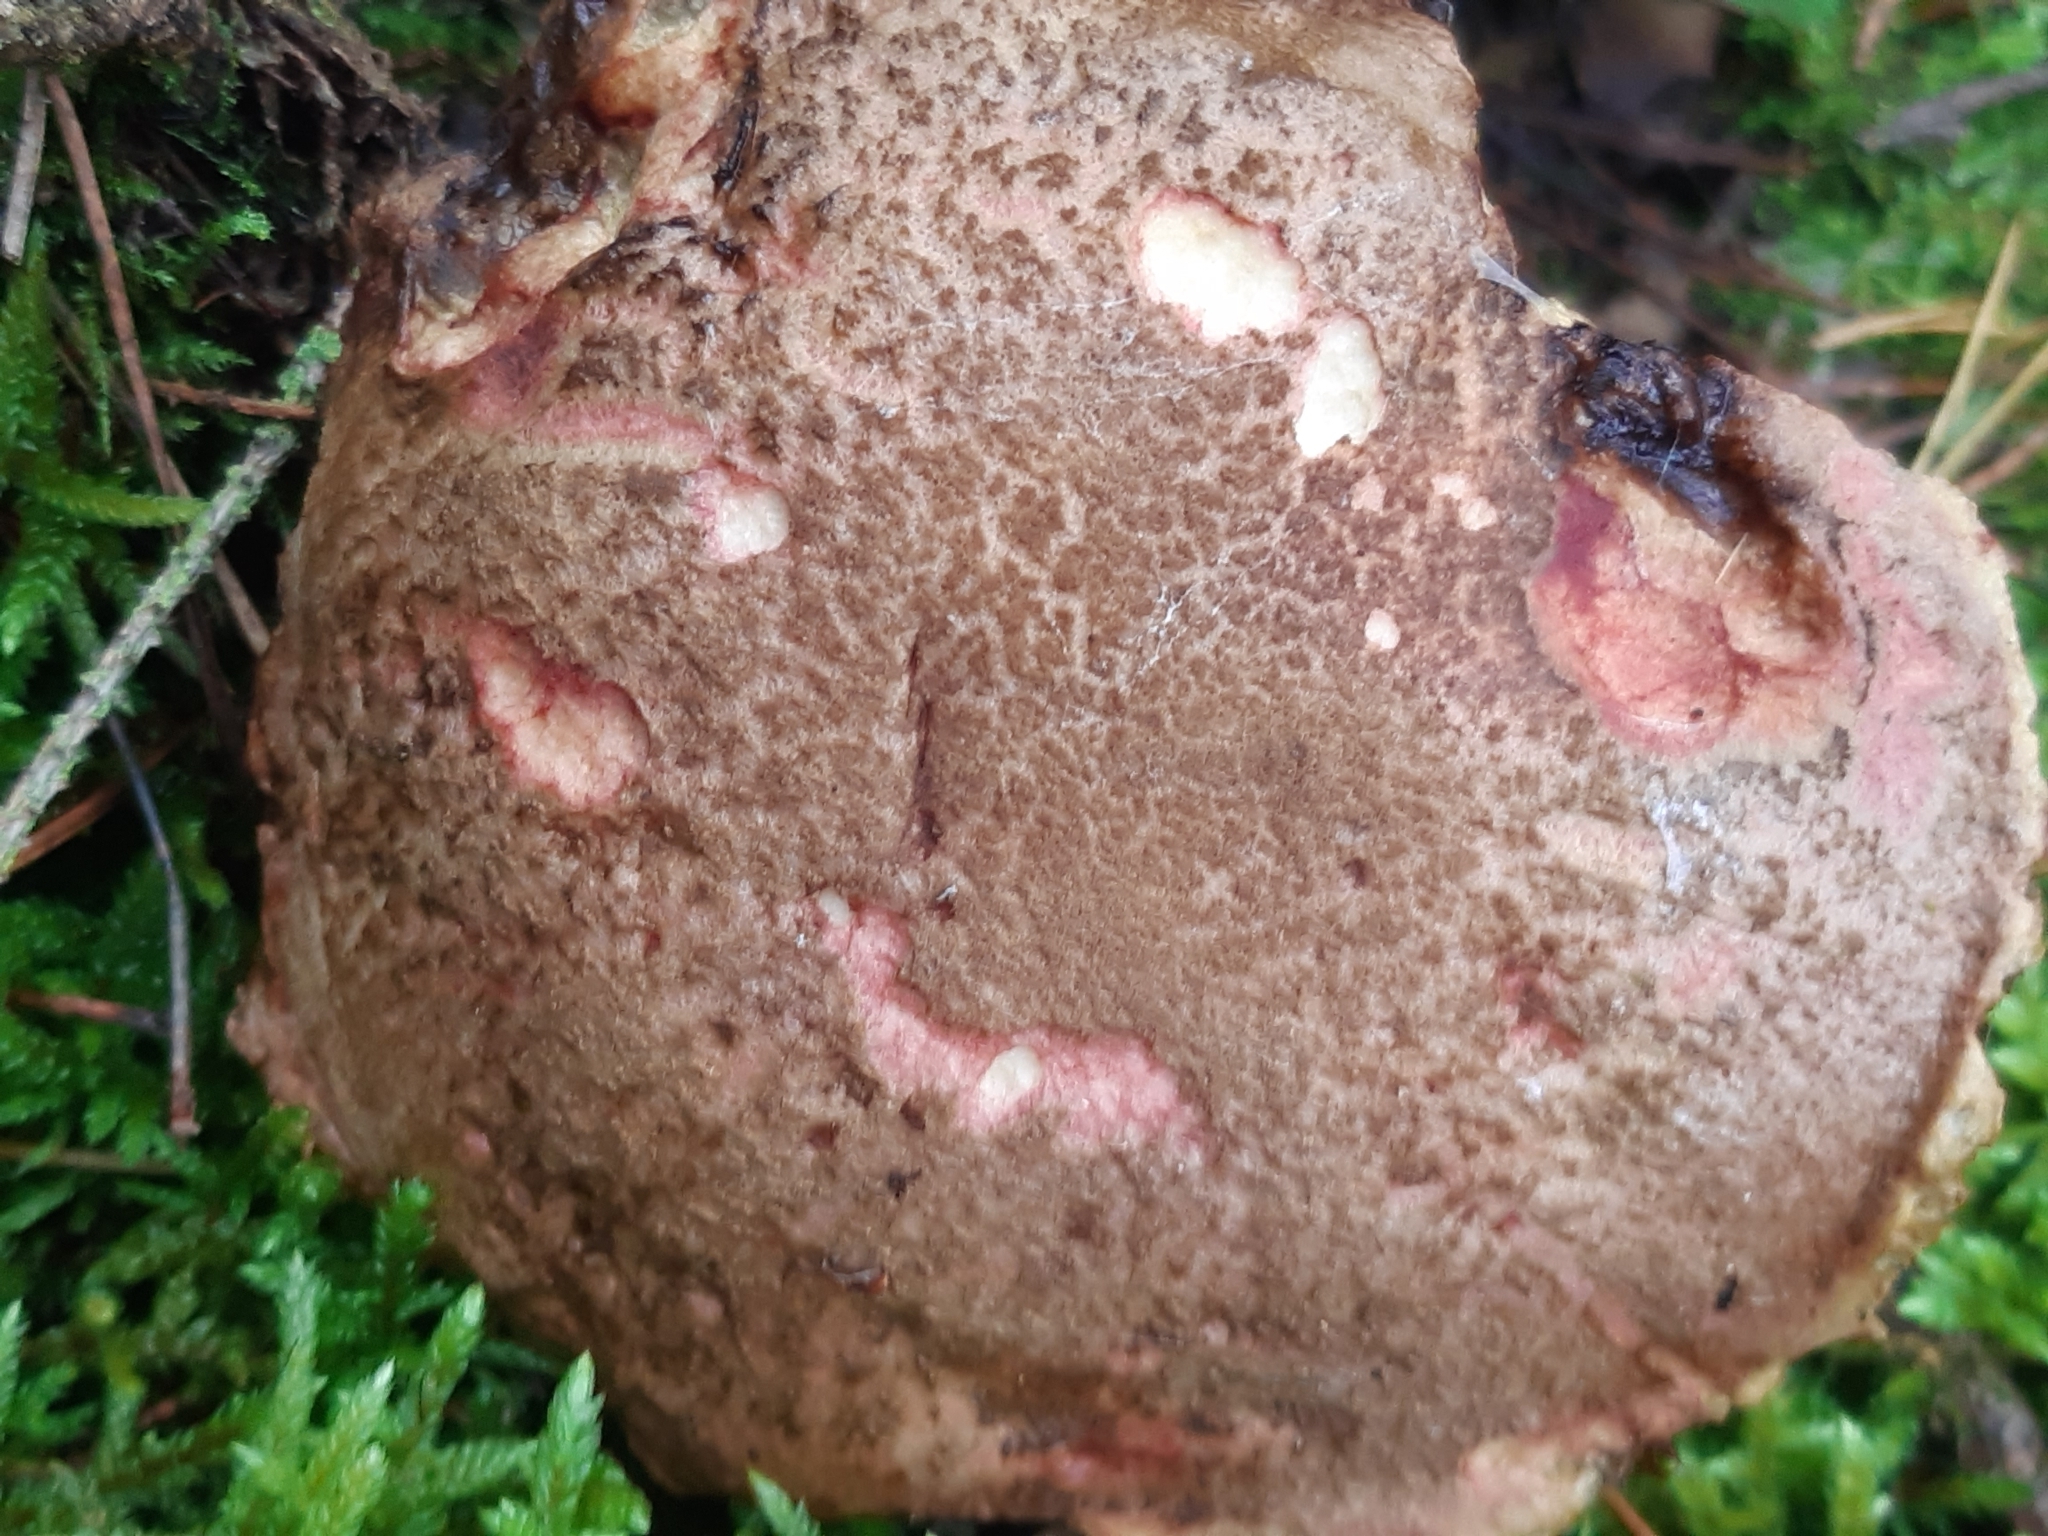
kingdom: Fungi
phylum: Basidiomycota
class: Agaricomycetes
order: Boletales
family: Boletaceae
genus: Xerocomellus
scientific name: Xerocomellus chrysenteron
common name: Red-cracking bolete
